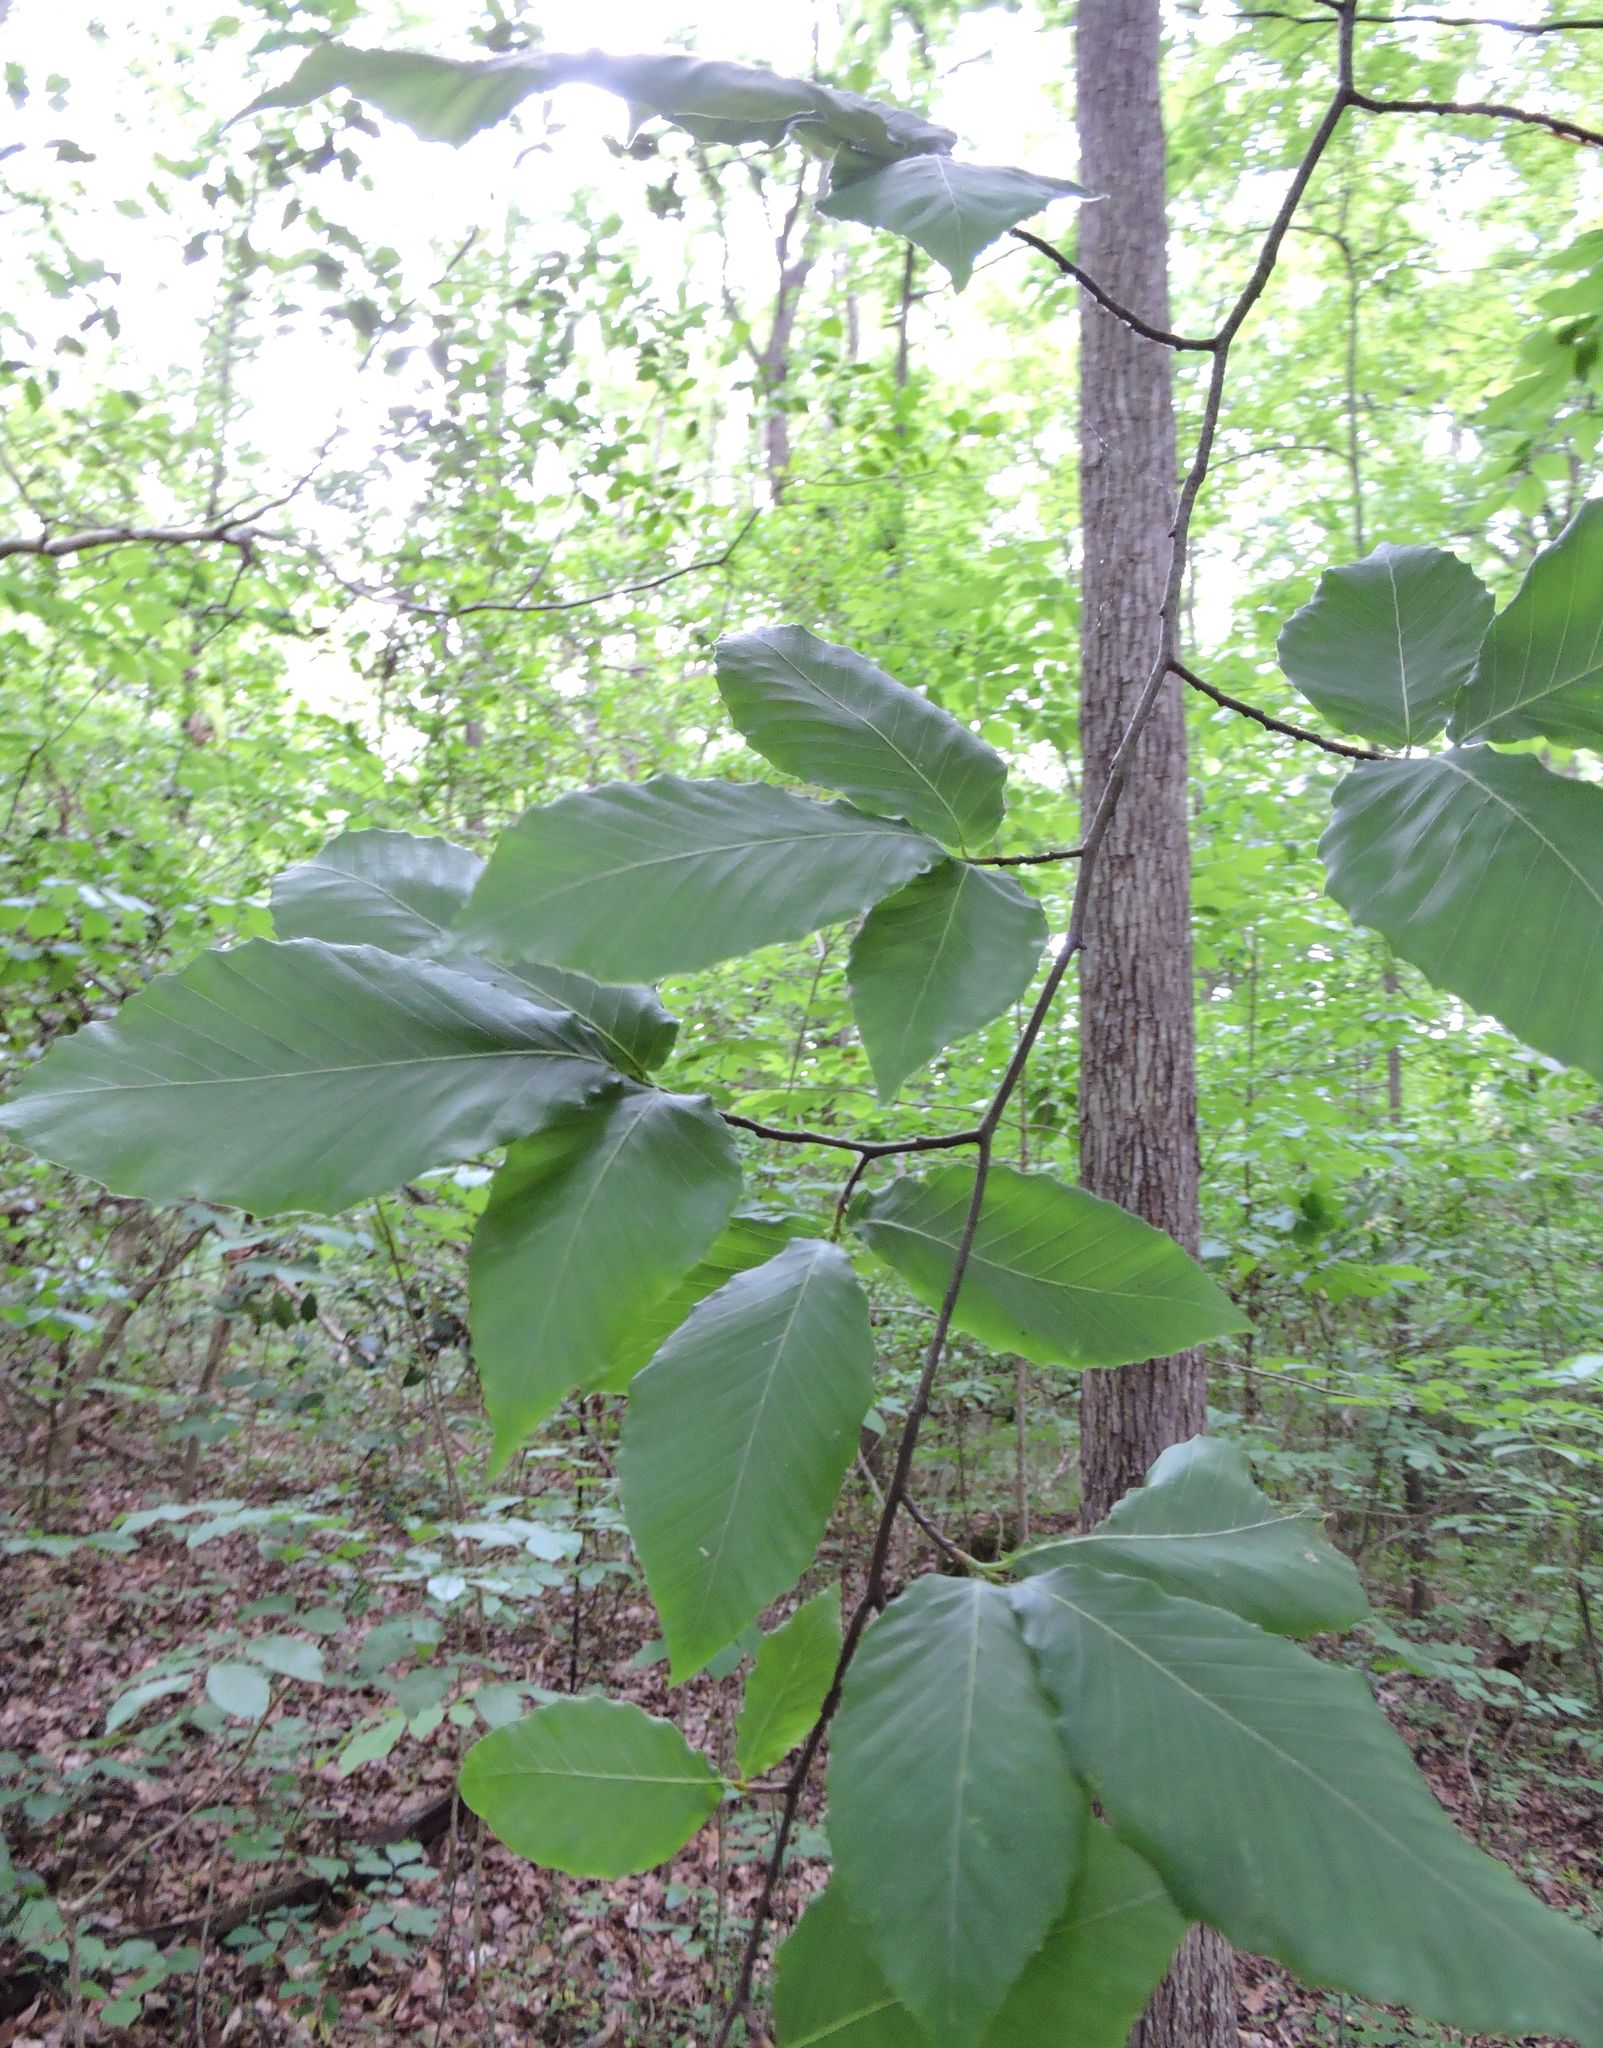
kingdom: Plantae
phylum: Tracheophyta
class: Magnoliopsida
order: Fagales
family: Fagaceae
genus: Fagus
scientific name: Fagus grandifolia
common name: American beech
